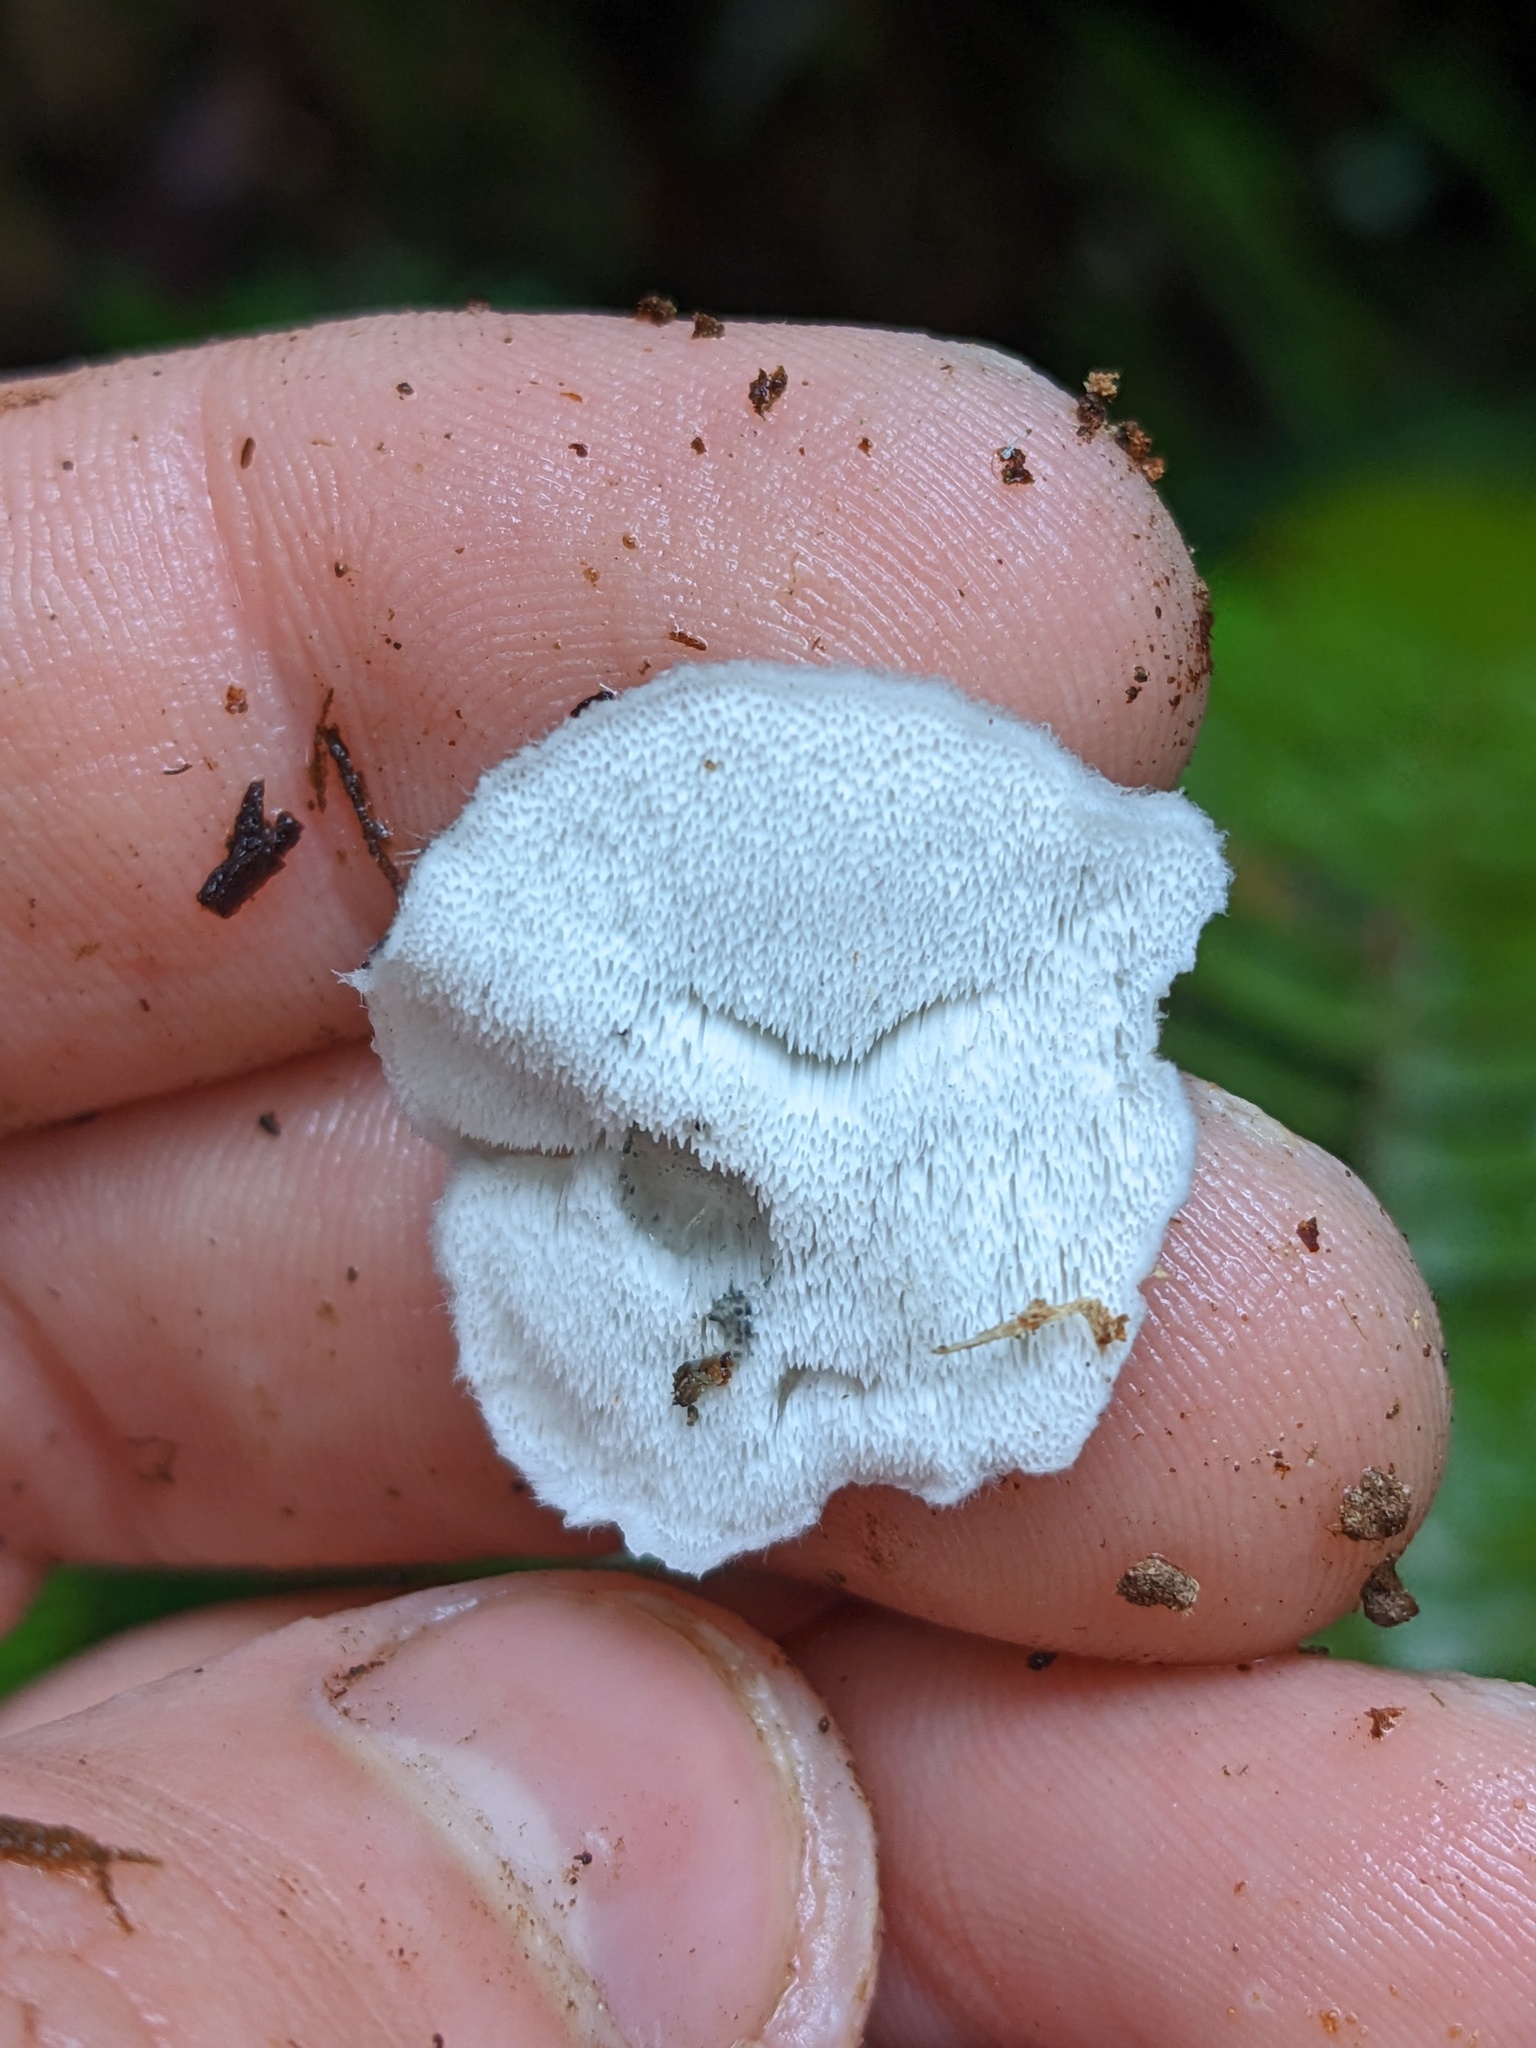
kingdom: Fungi
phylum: Basidiomycota
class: Agaricomycetes
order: Polyporales
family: Polyporaceae
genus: Cyanosporus
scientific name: Cyanosporus caesius
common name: Blue cheese polypore
